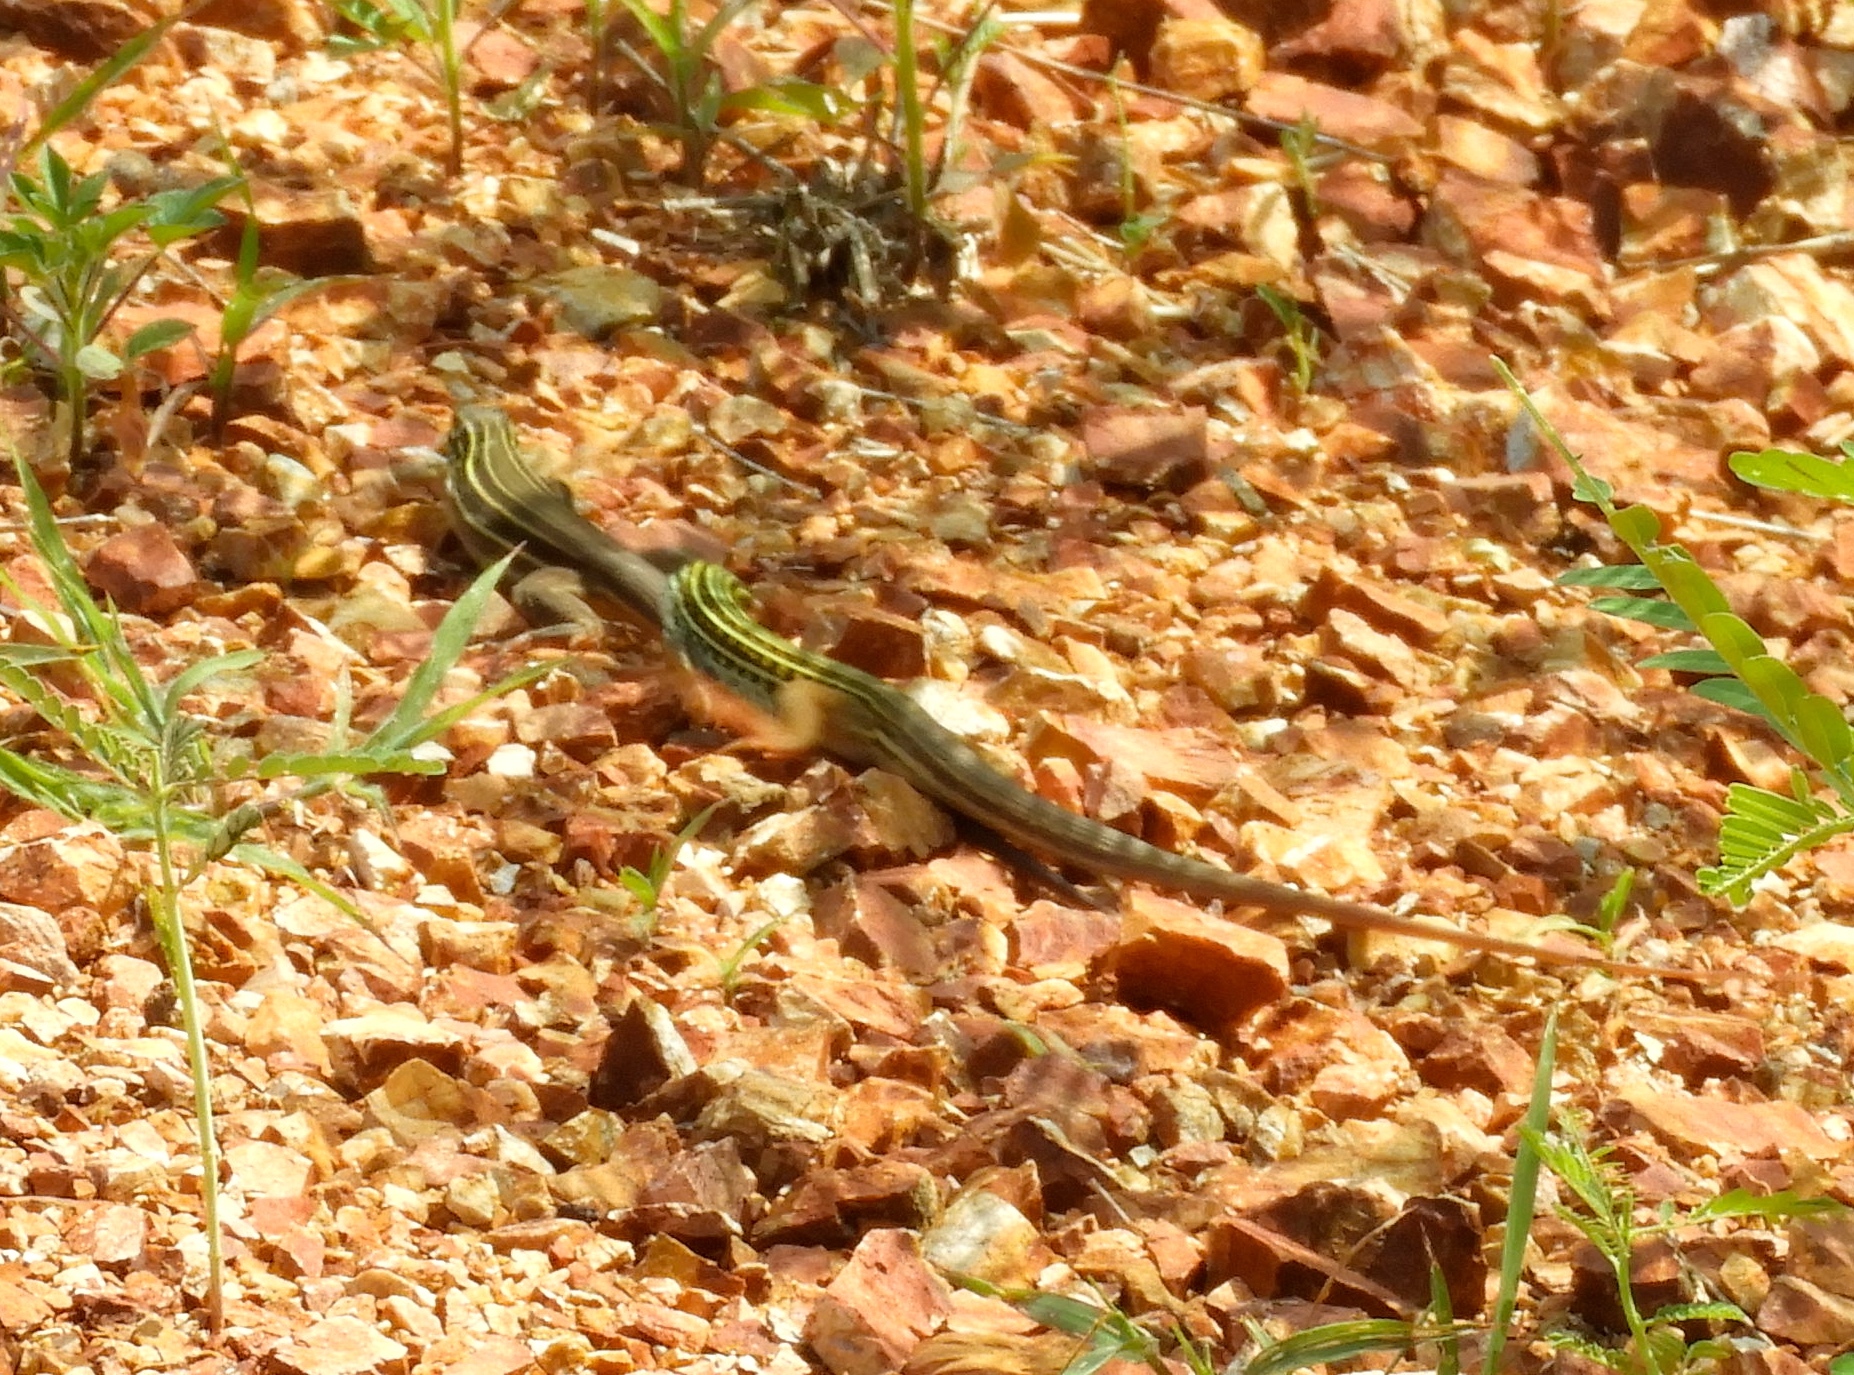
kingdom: Animalia
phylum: Chordata
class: Squamata
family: Teiidae
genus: Aspidoscelis
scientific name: Aspidoscelis costatus
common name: Western mexico whiptail
